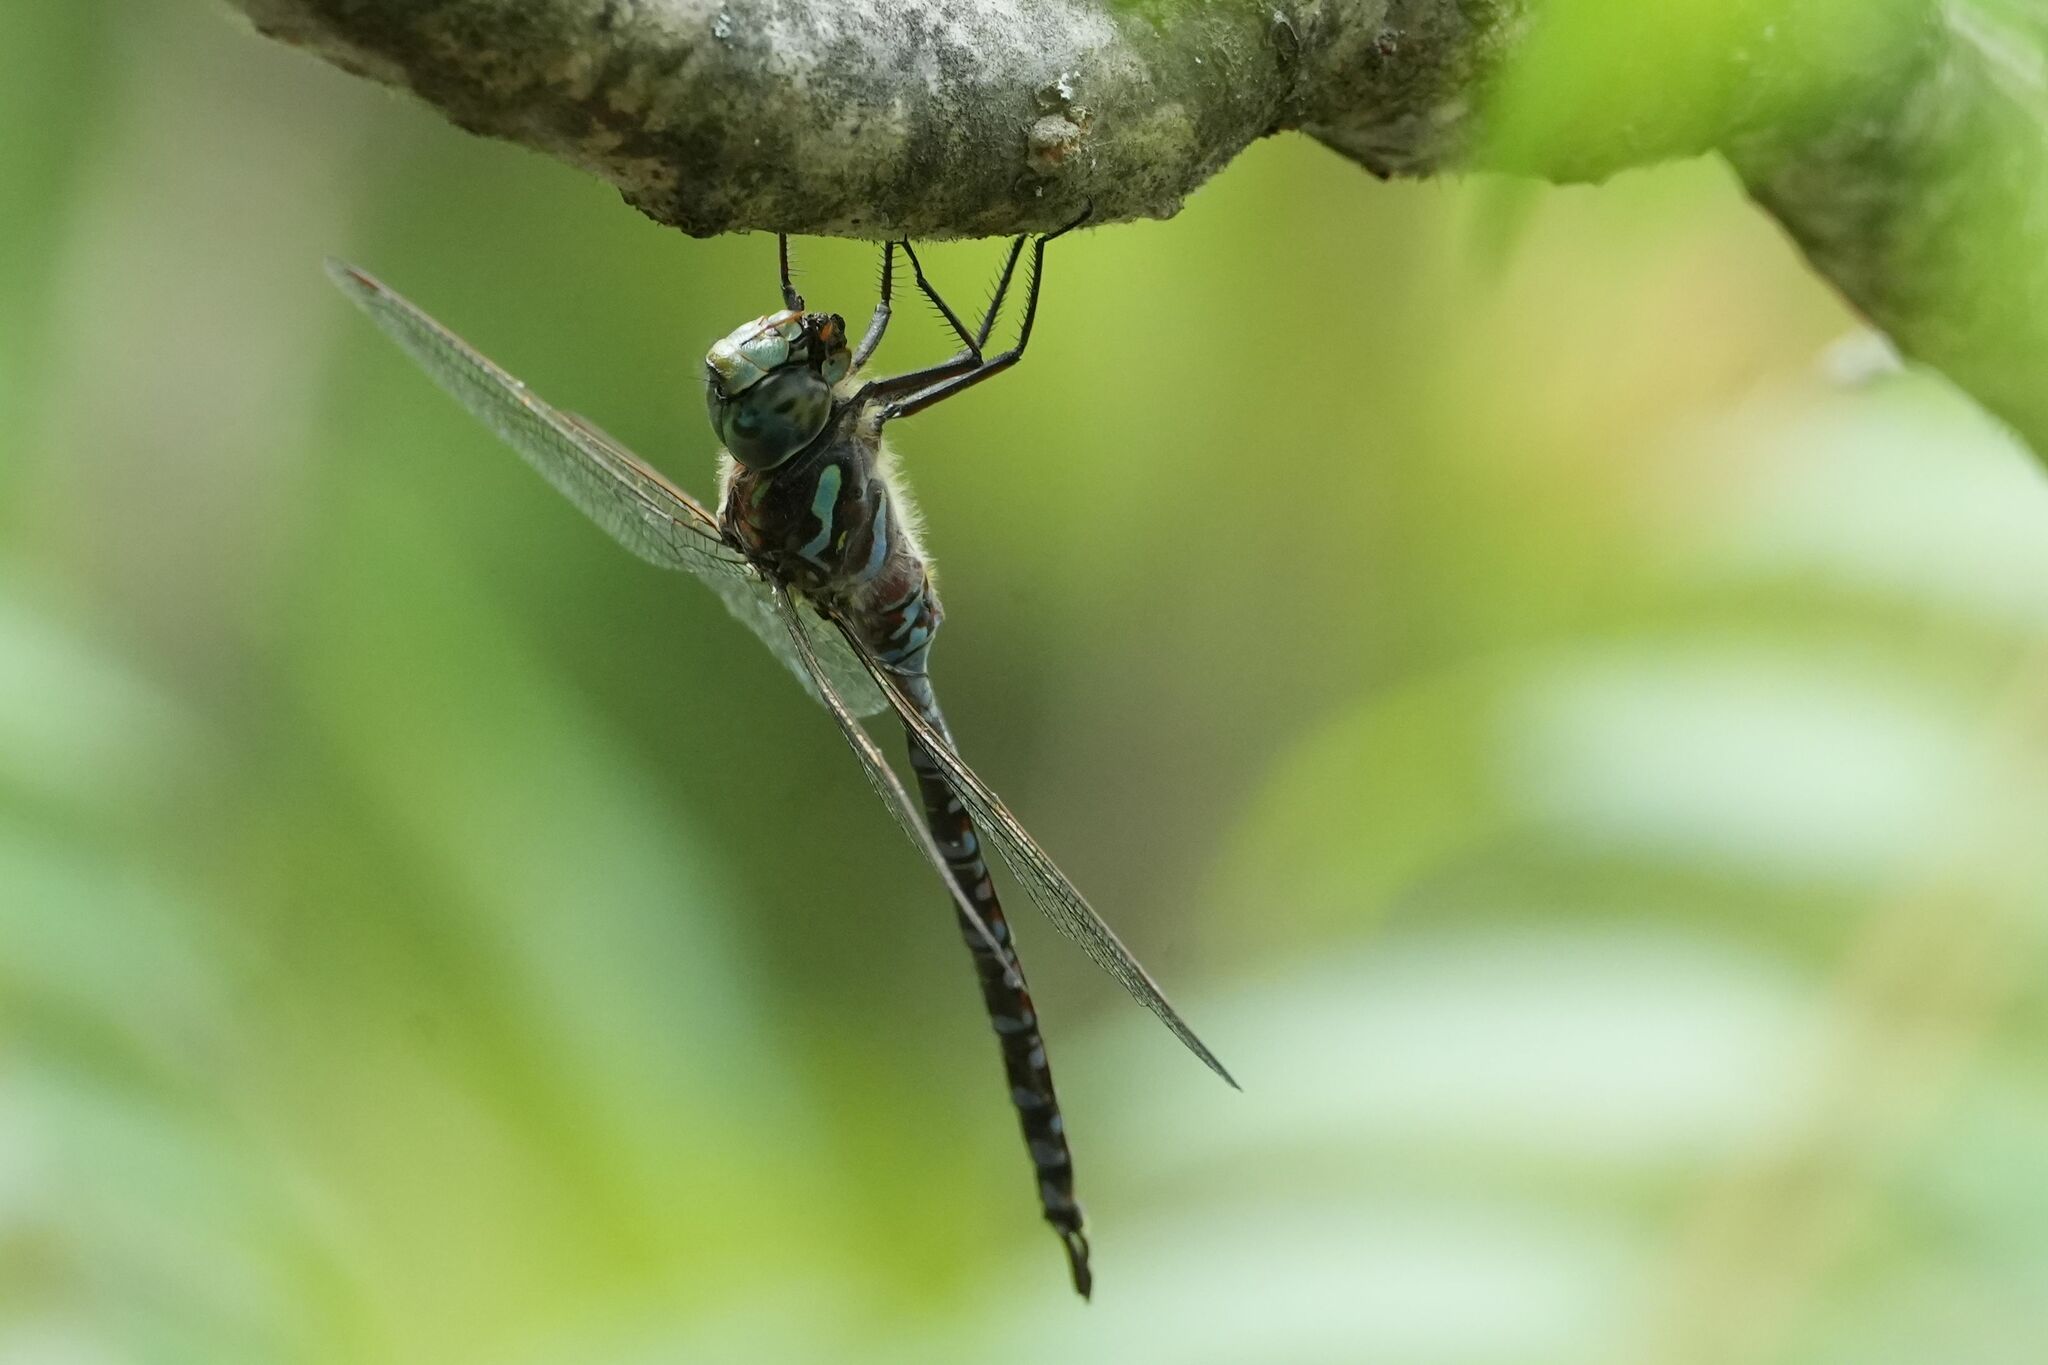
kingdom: Animalia
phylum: Arthropoda
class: Insecta
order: Odonata
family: Aeshnidae
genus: Aeshna
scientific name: Aeshna canadensis
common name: Canada darner
